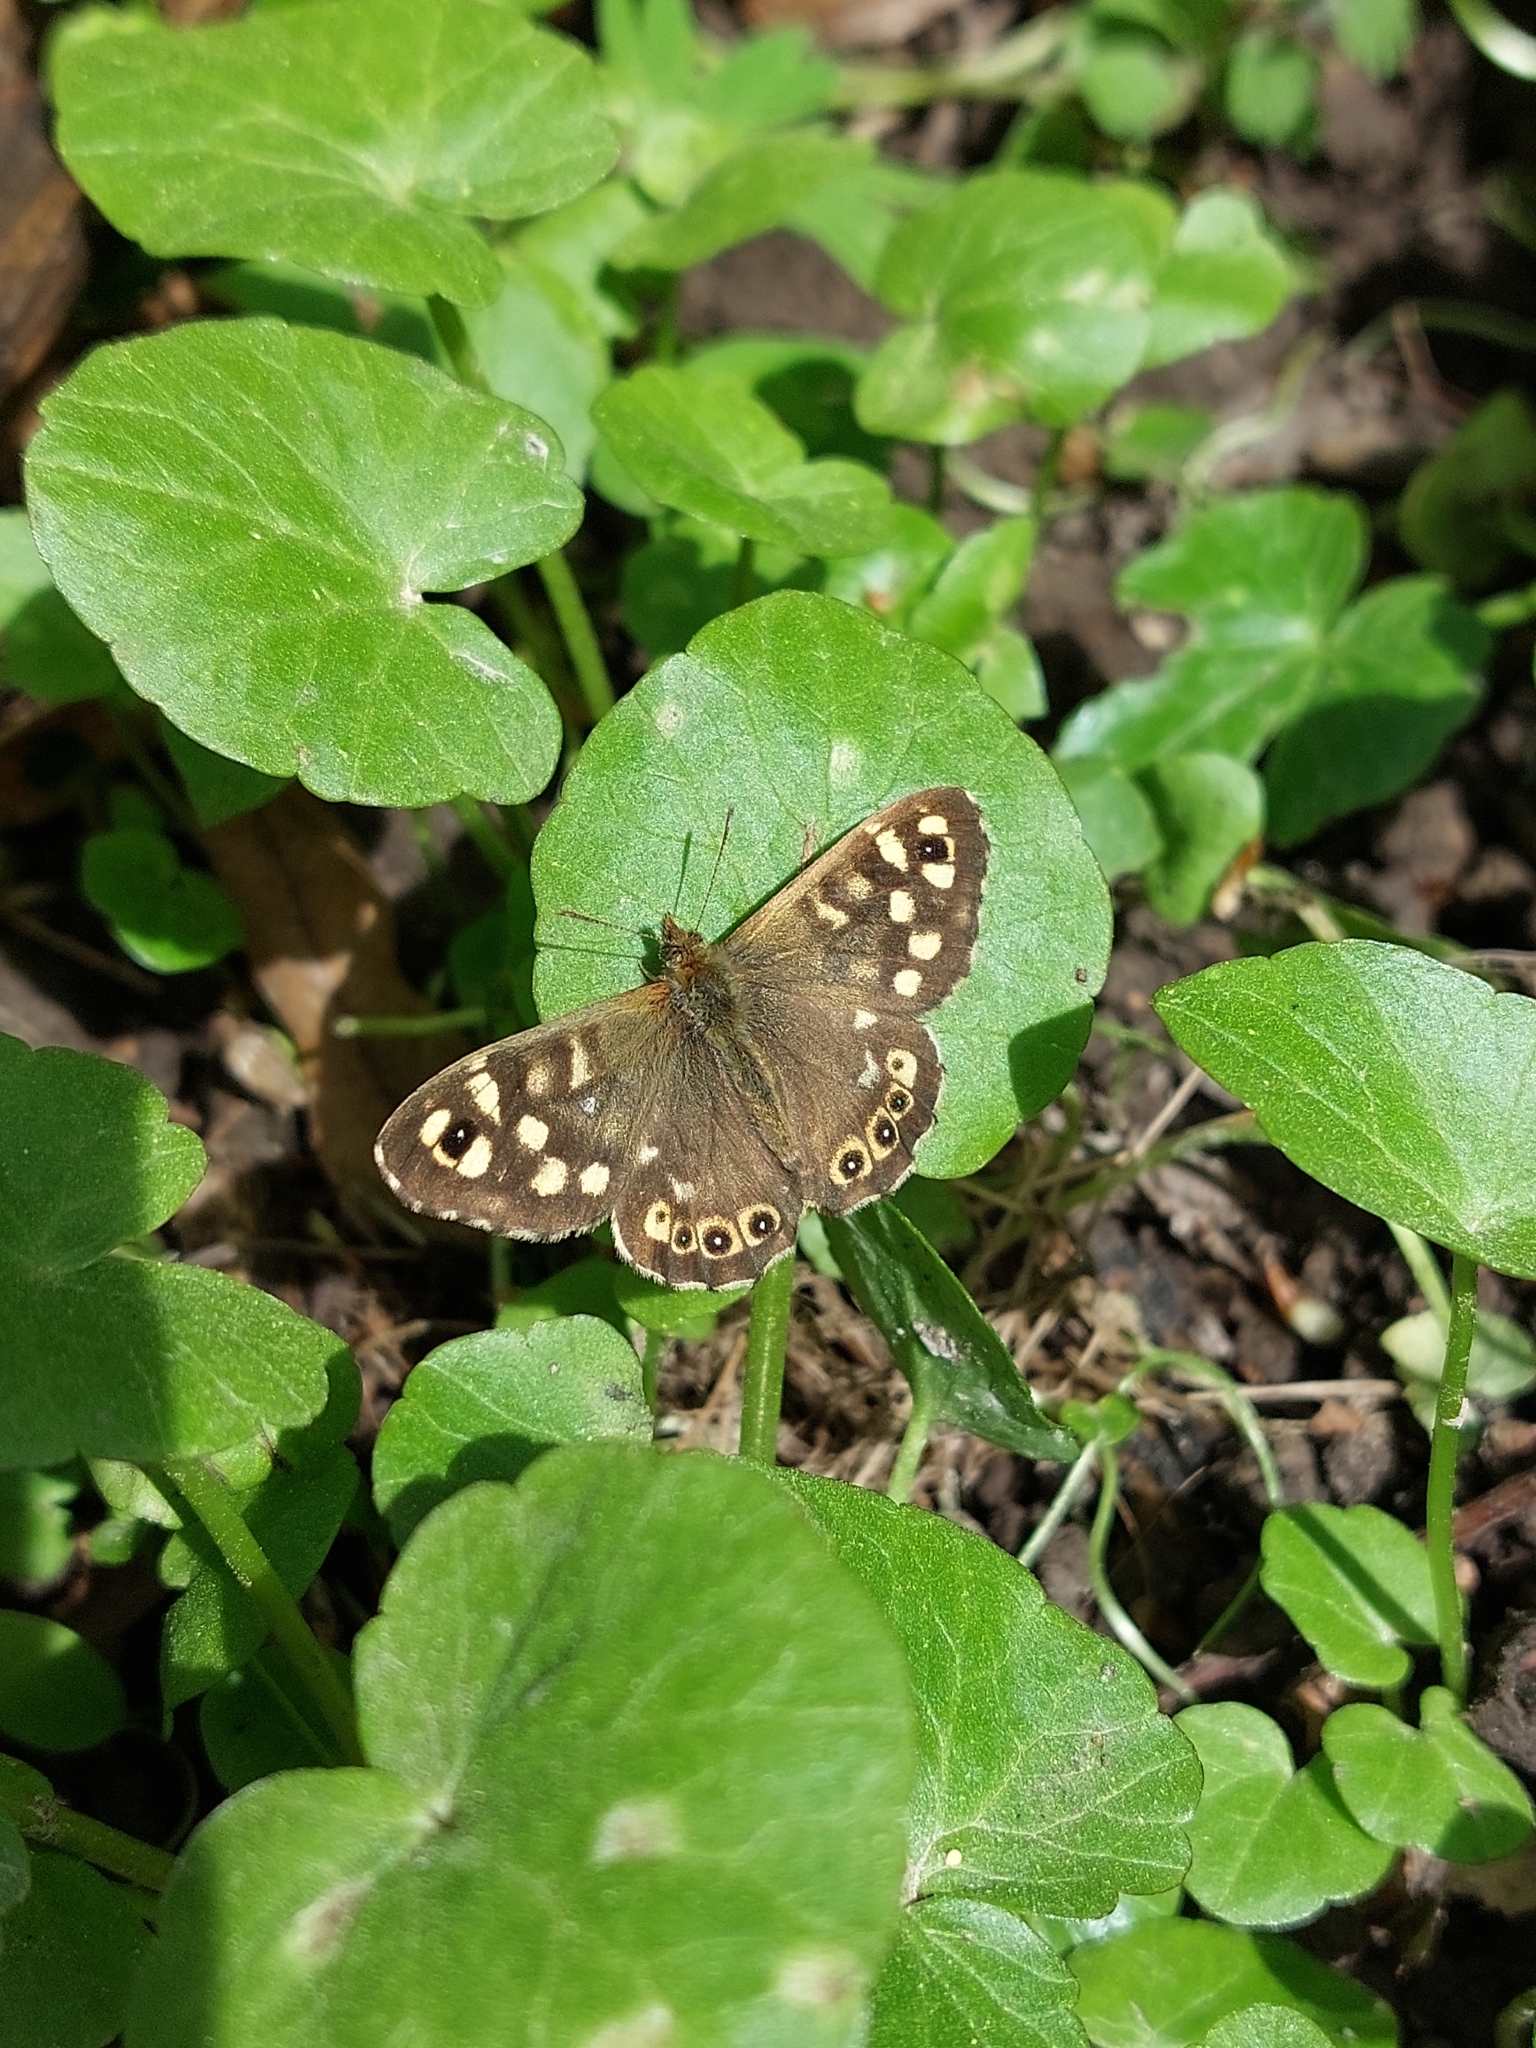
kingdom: Animalia
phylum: Arthropoda
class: Insecta
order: Lepidoptera
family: Nymphalidae
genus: Pararge
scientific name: Pararge aegeria
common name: Speckled wood
